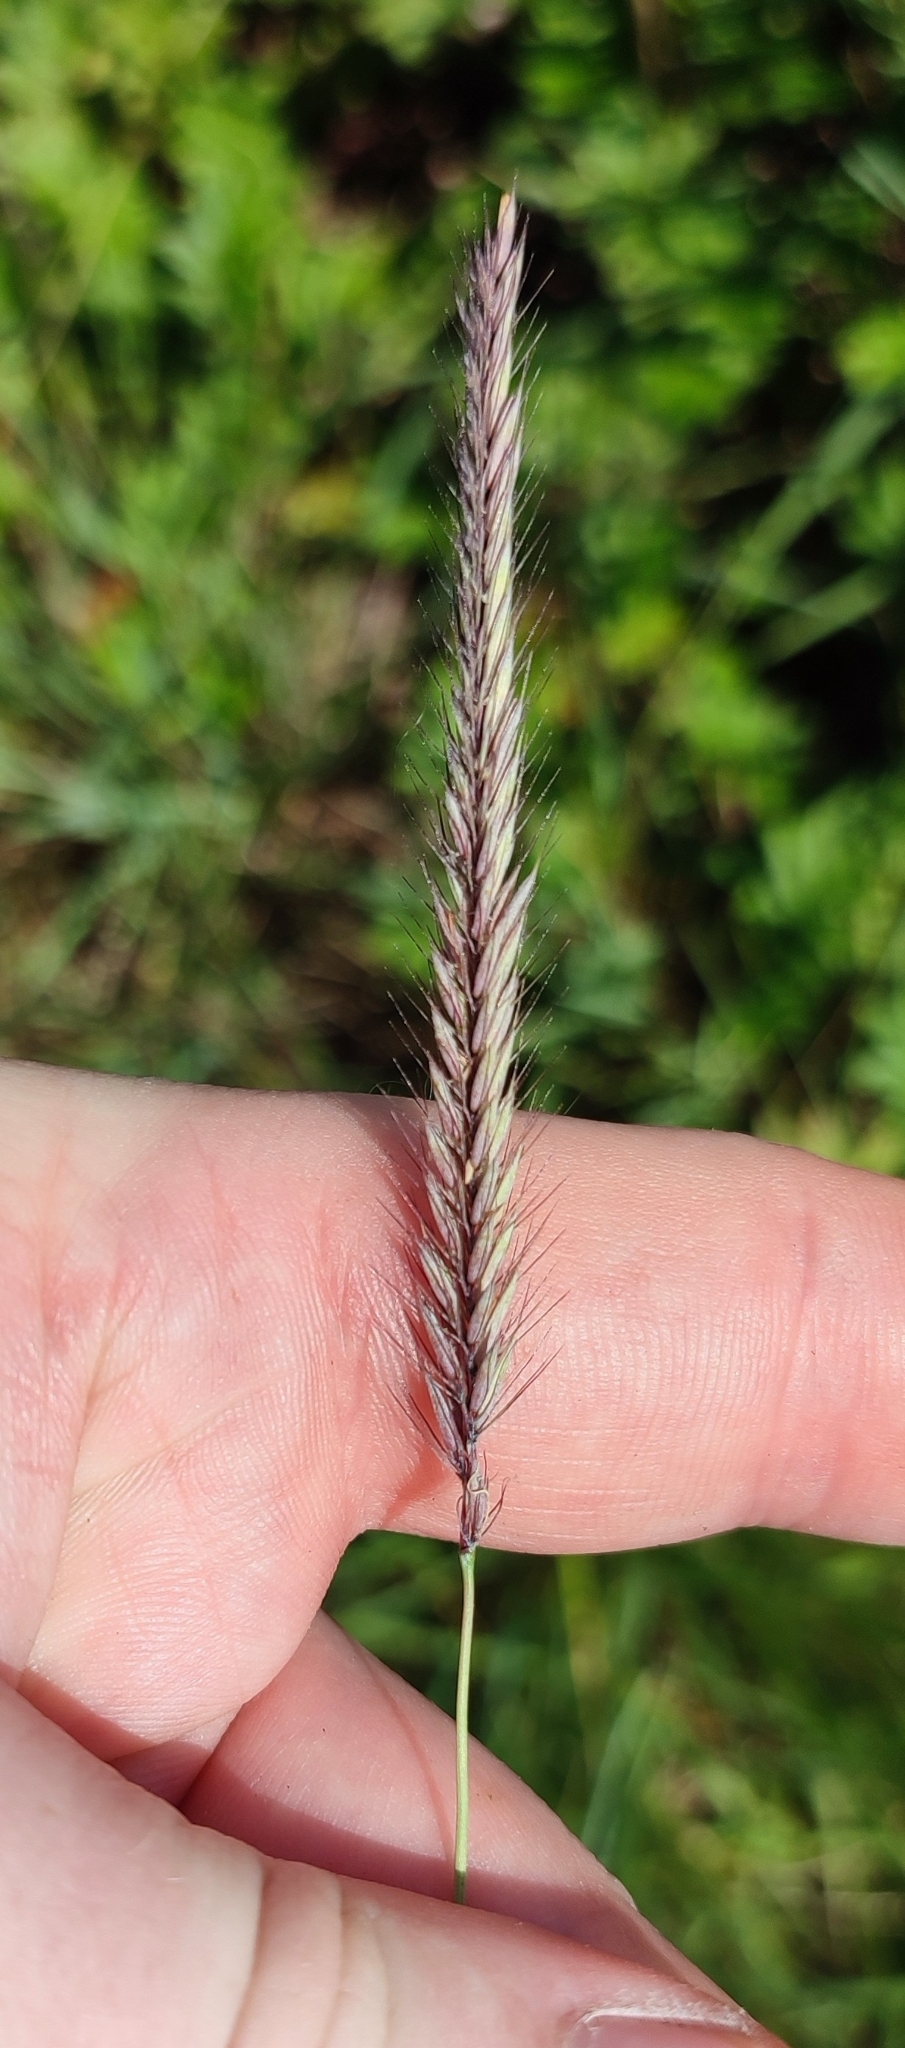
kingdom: Plantae
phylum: Tracheophyta
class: Liliopsida
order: Poales
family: Poaceae
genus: Hordeum
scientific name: Hordeum brevisubulatum
